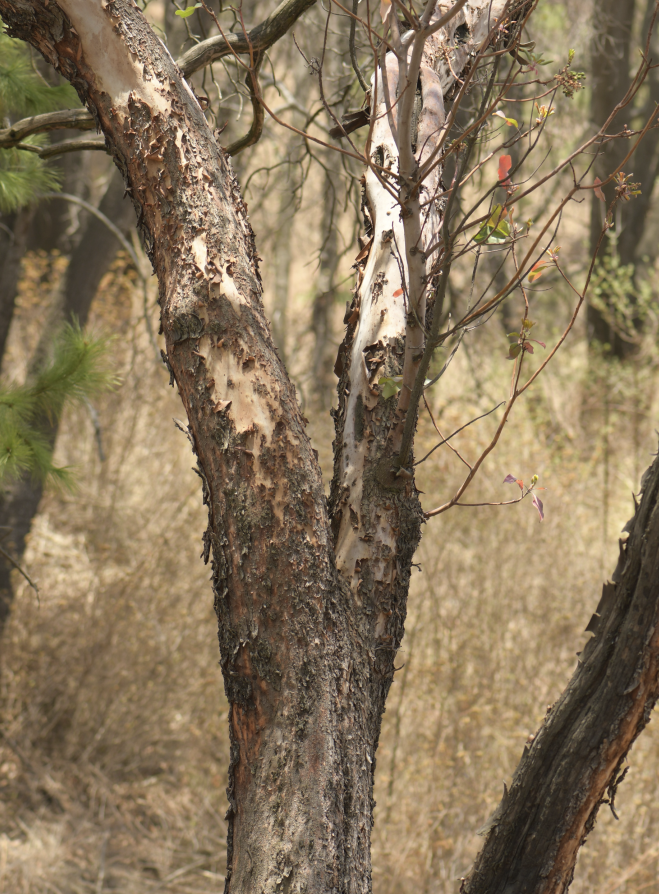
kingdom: Plantae
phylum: Tracheophyta
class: Magnoliopsida
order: Ericales
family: Ericaceae
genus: Arbutus
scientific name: Arbutus xalapensis
